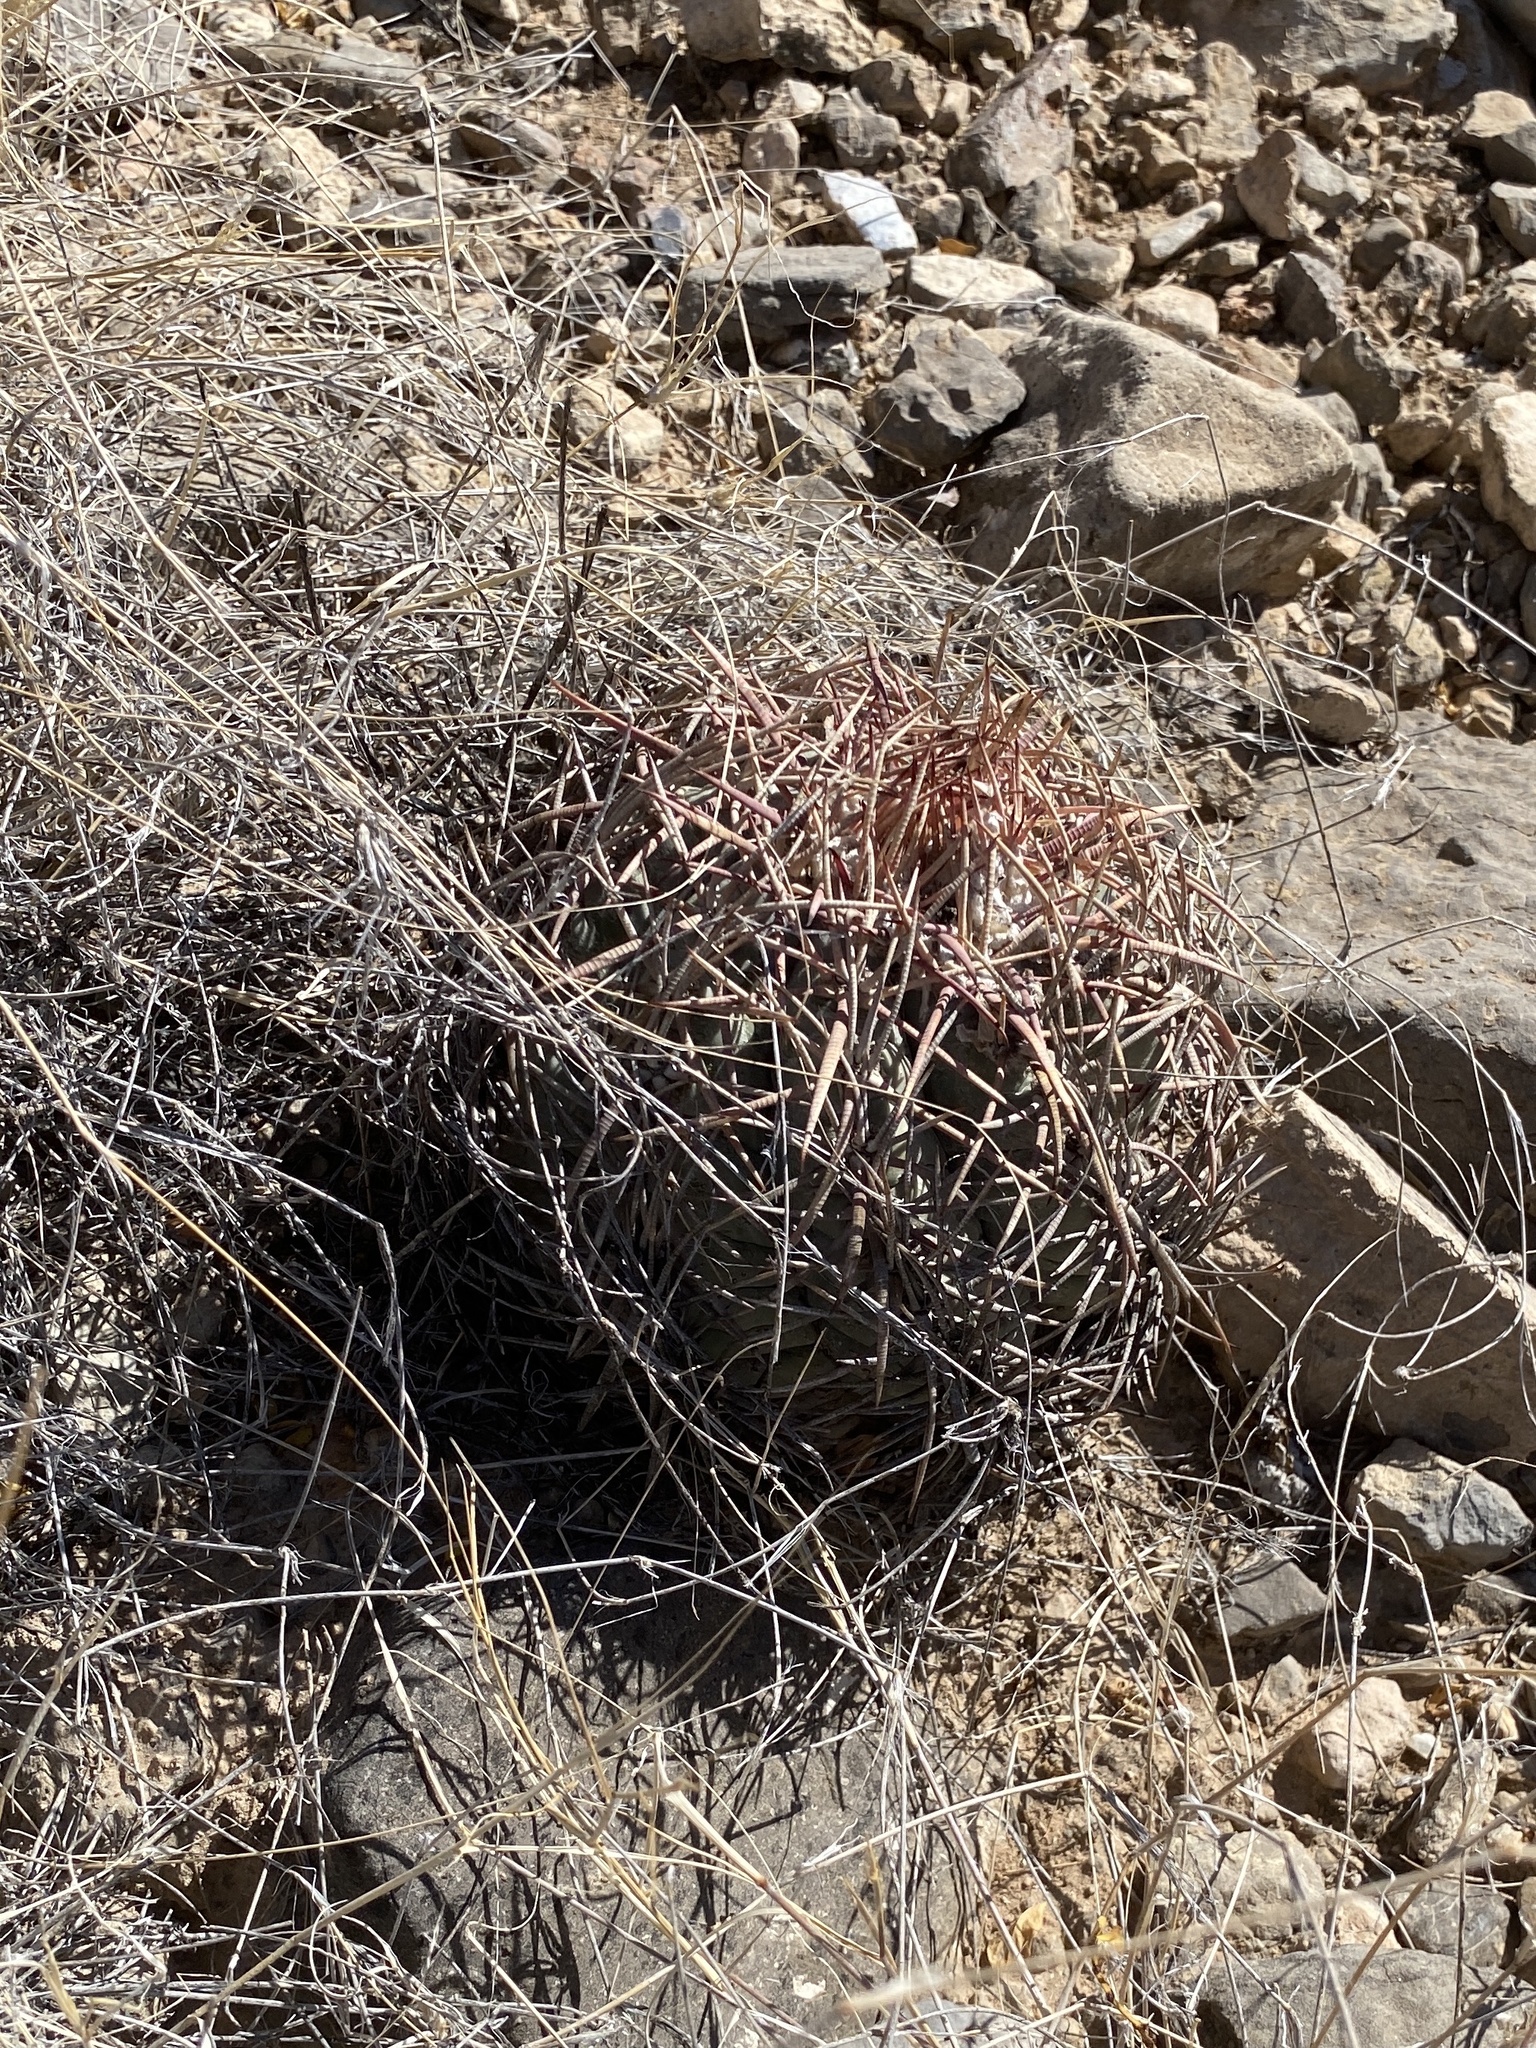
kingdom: Plantae
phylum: Tracheophyta
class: Magnoliopsida
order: Caryophyllales
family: Cactaceae
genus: Echinocactus
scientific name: Echinocactus horizonthalonius
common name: Devilshead
